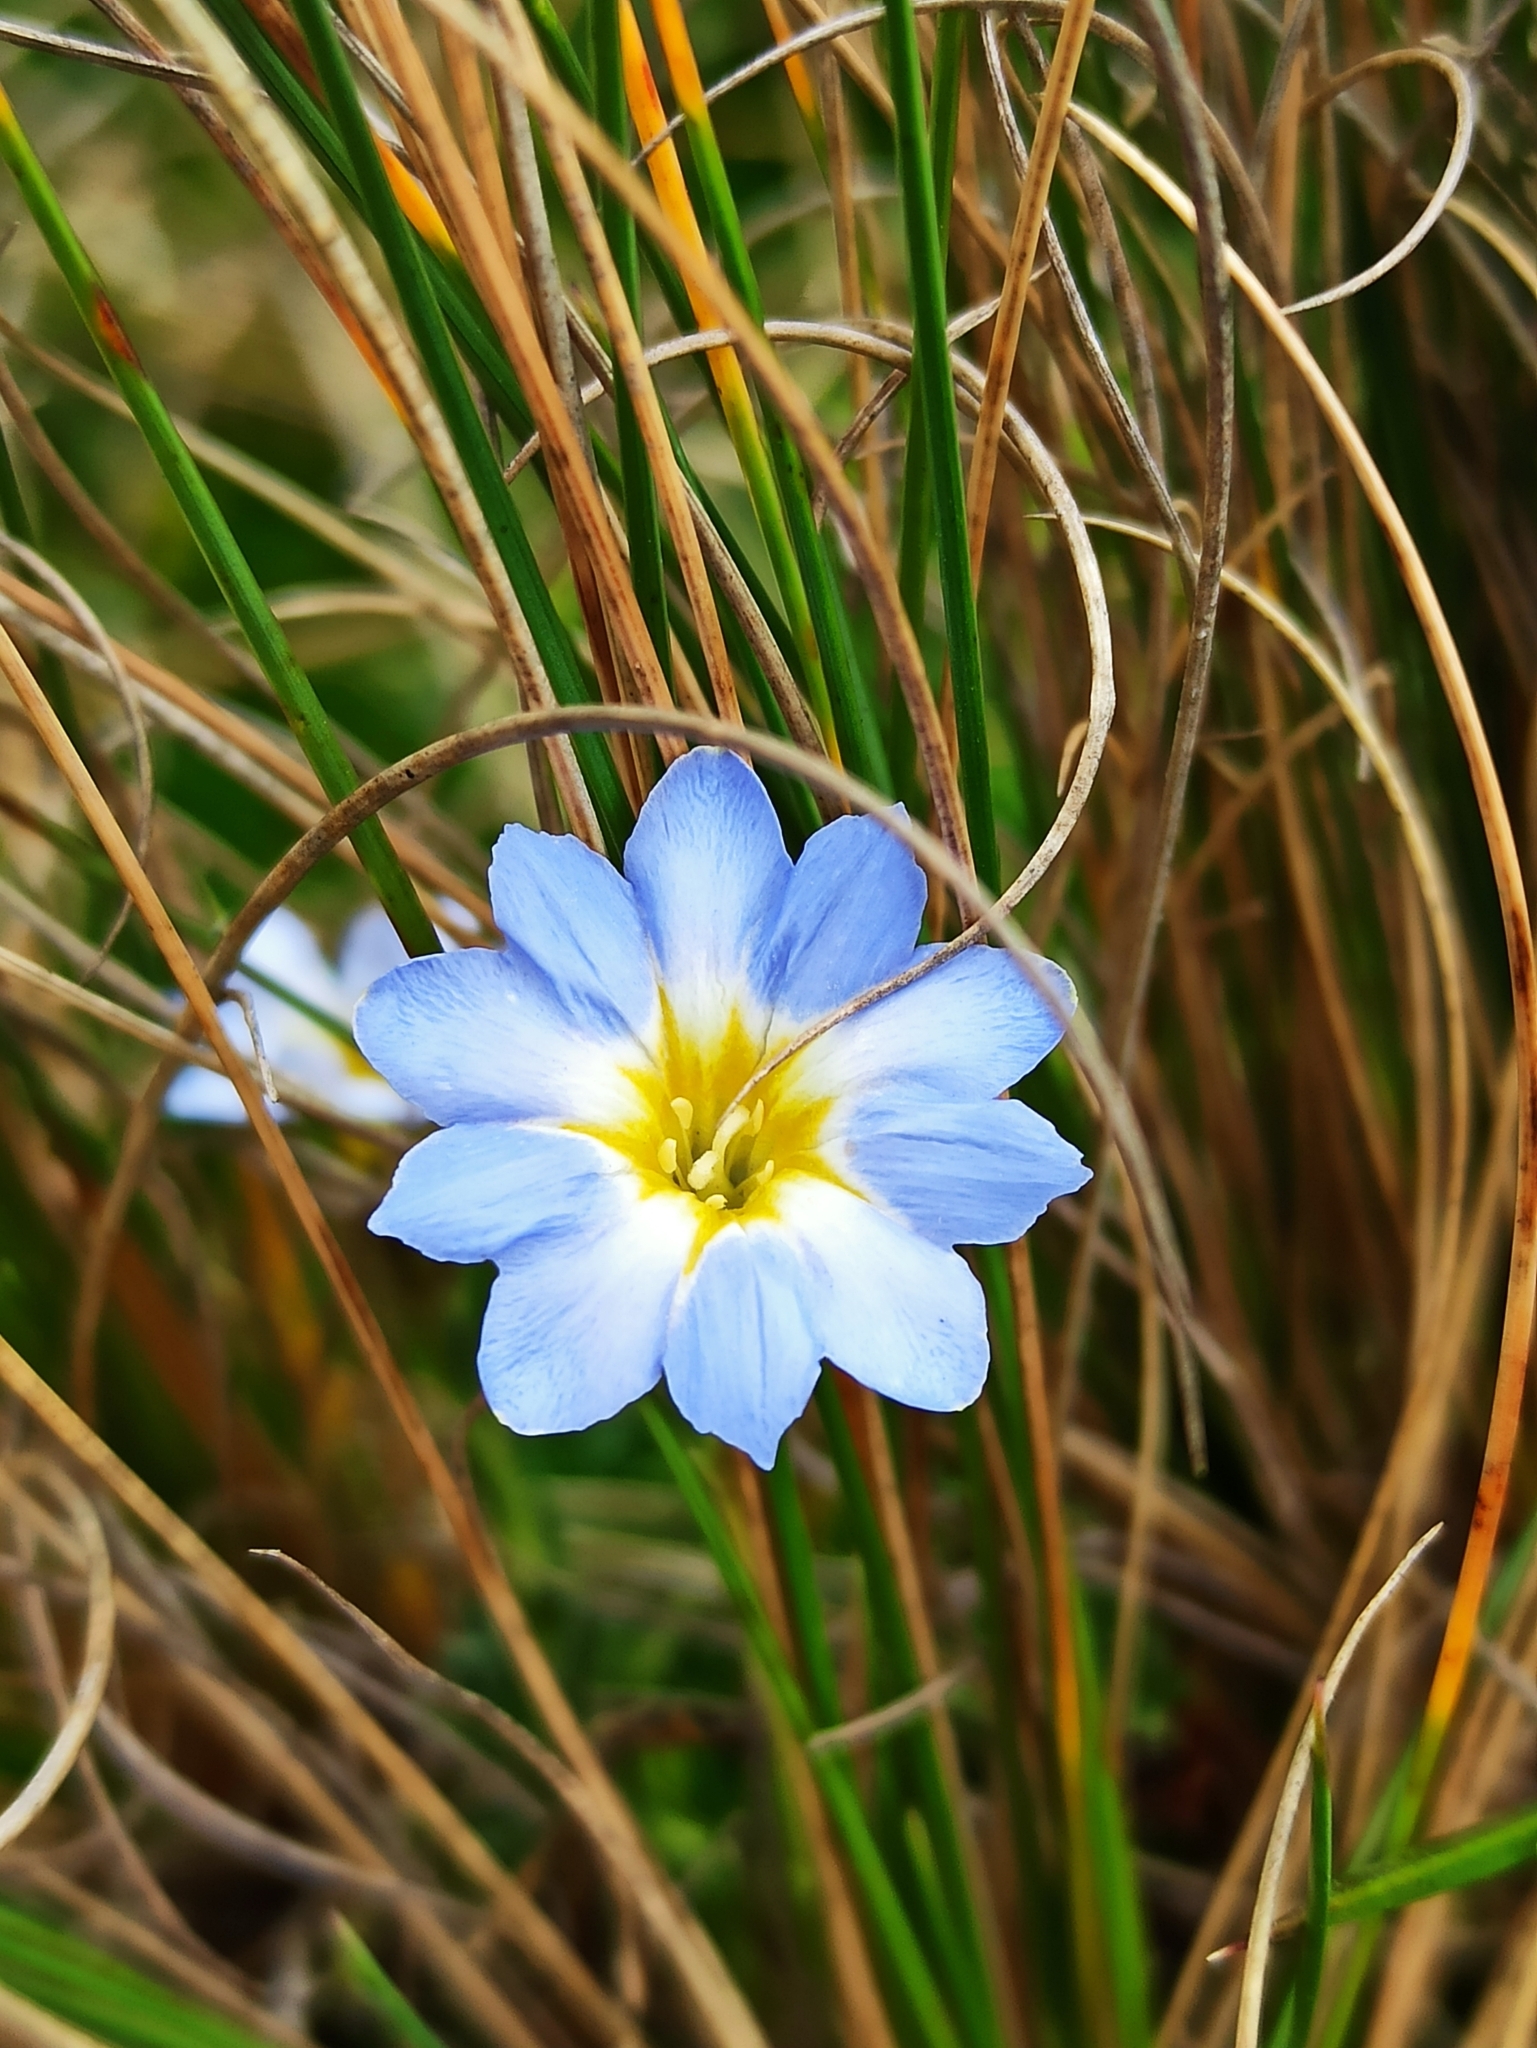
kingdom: Plantae
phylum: Tracheophyta
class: Magnoliopsida
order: Gentianales
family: Gentianaceae
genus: Gentiana
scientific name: Gentiana sedifolia
